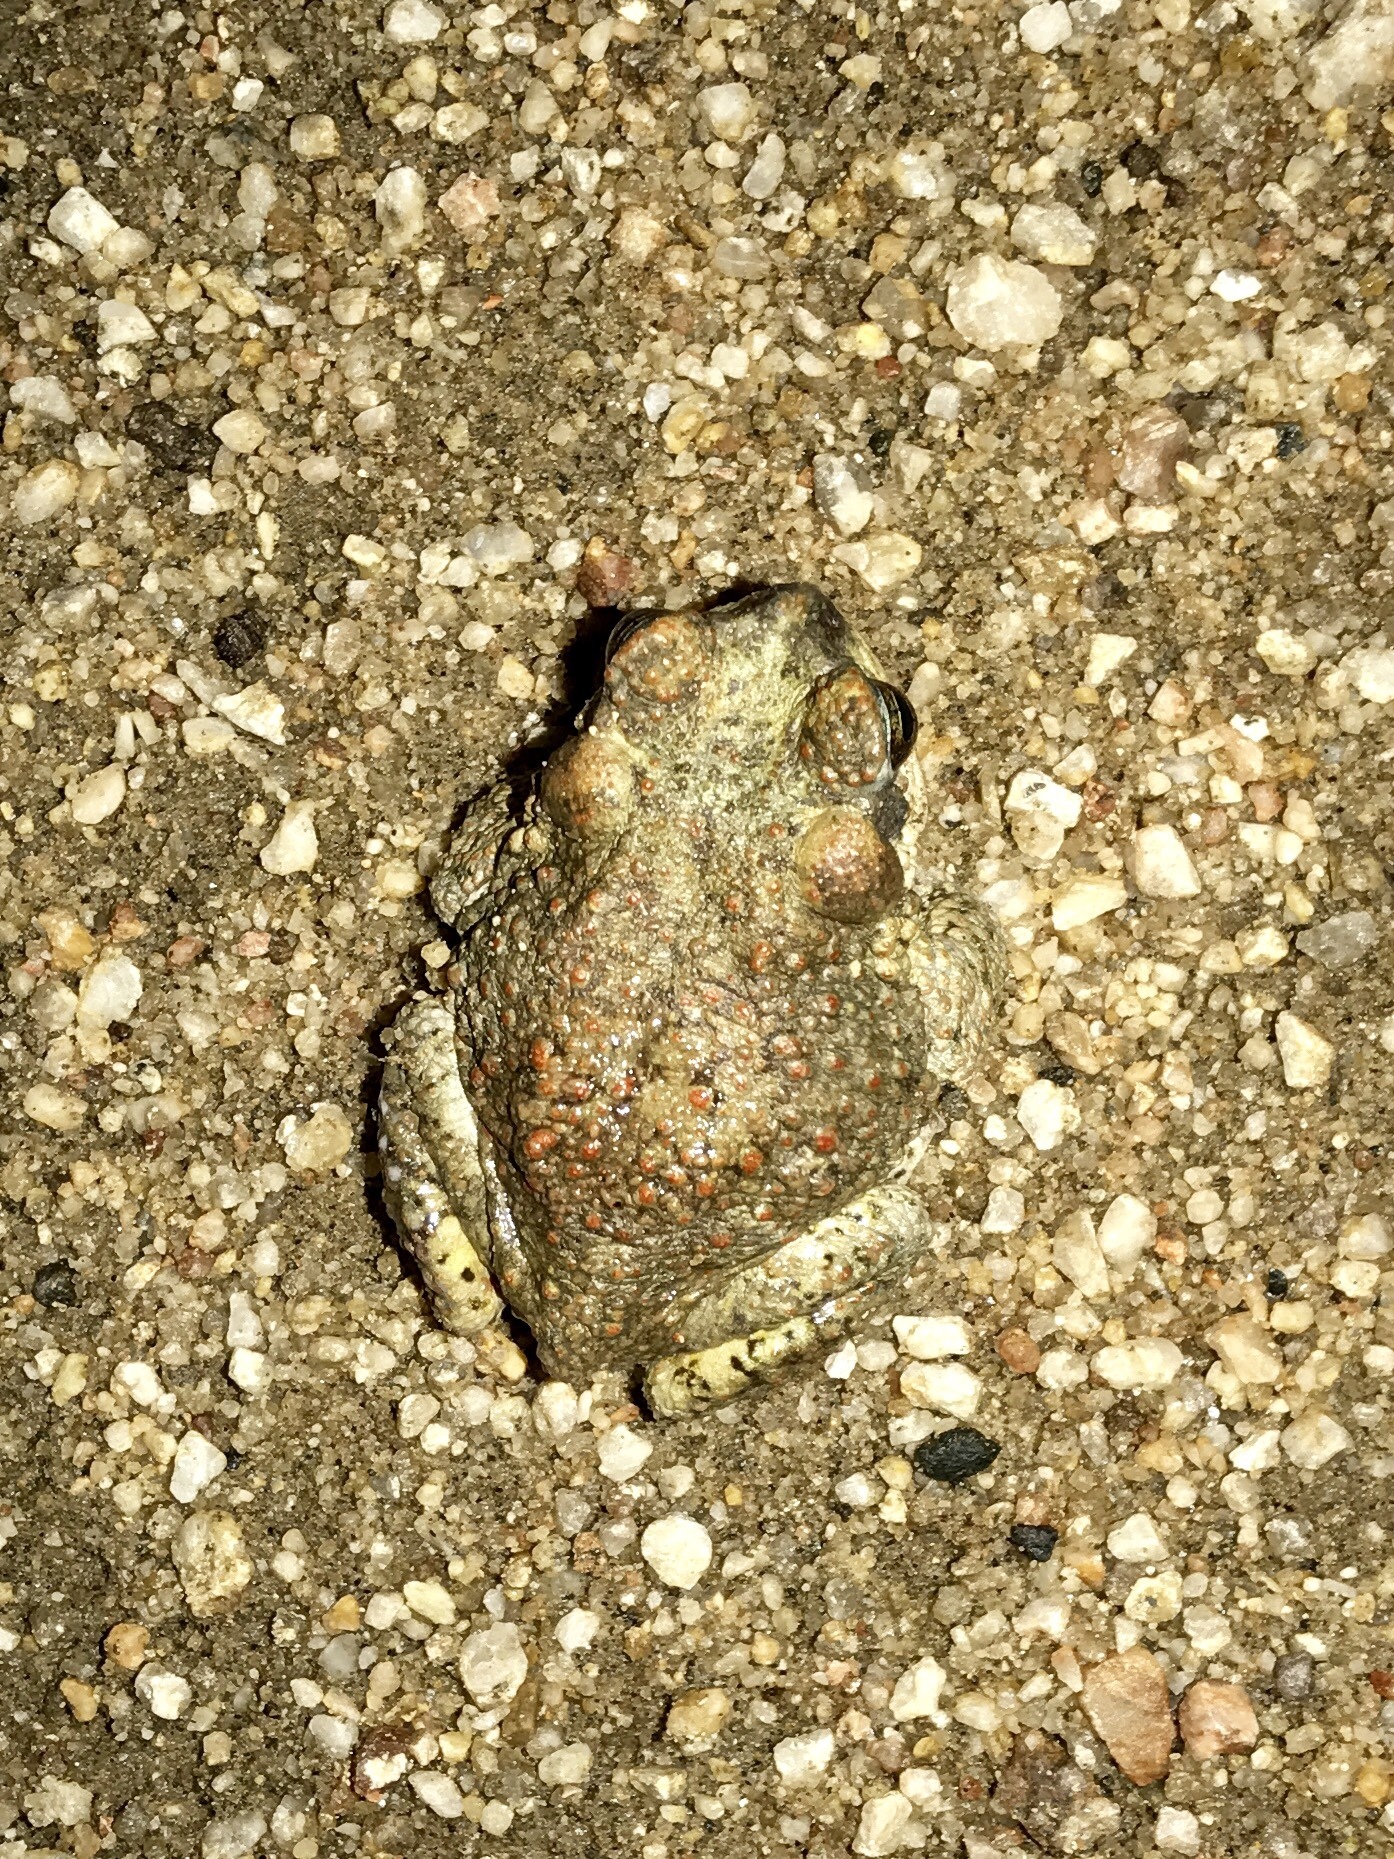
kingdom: Animalia
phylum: Chordata
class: Amphibia
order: Anura
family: Bufonidae
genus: Anaxyrus
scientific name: Anaxyrus punctatus
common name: Red-spotted toad
